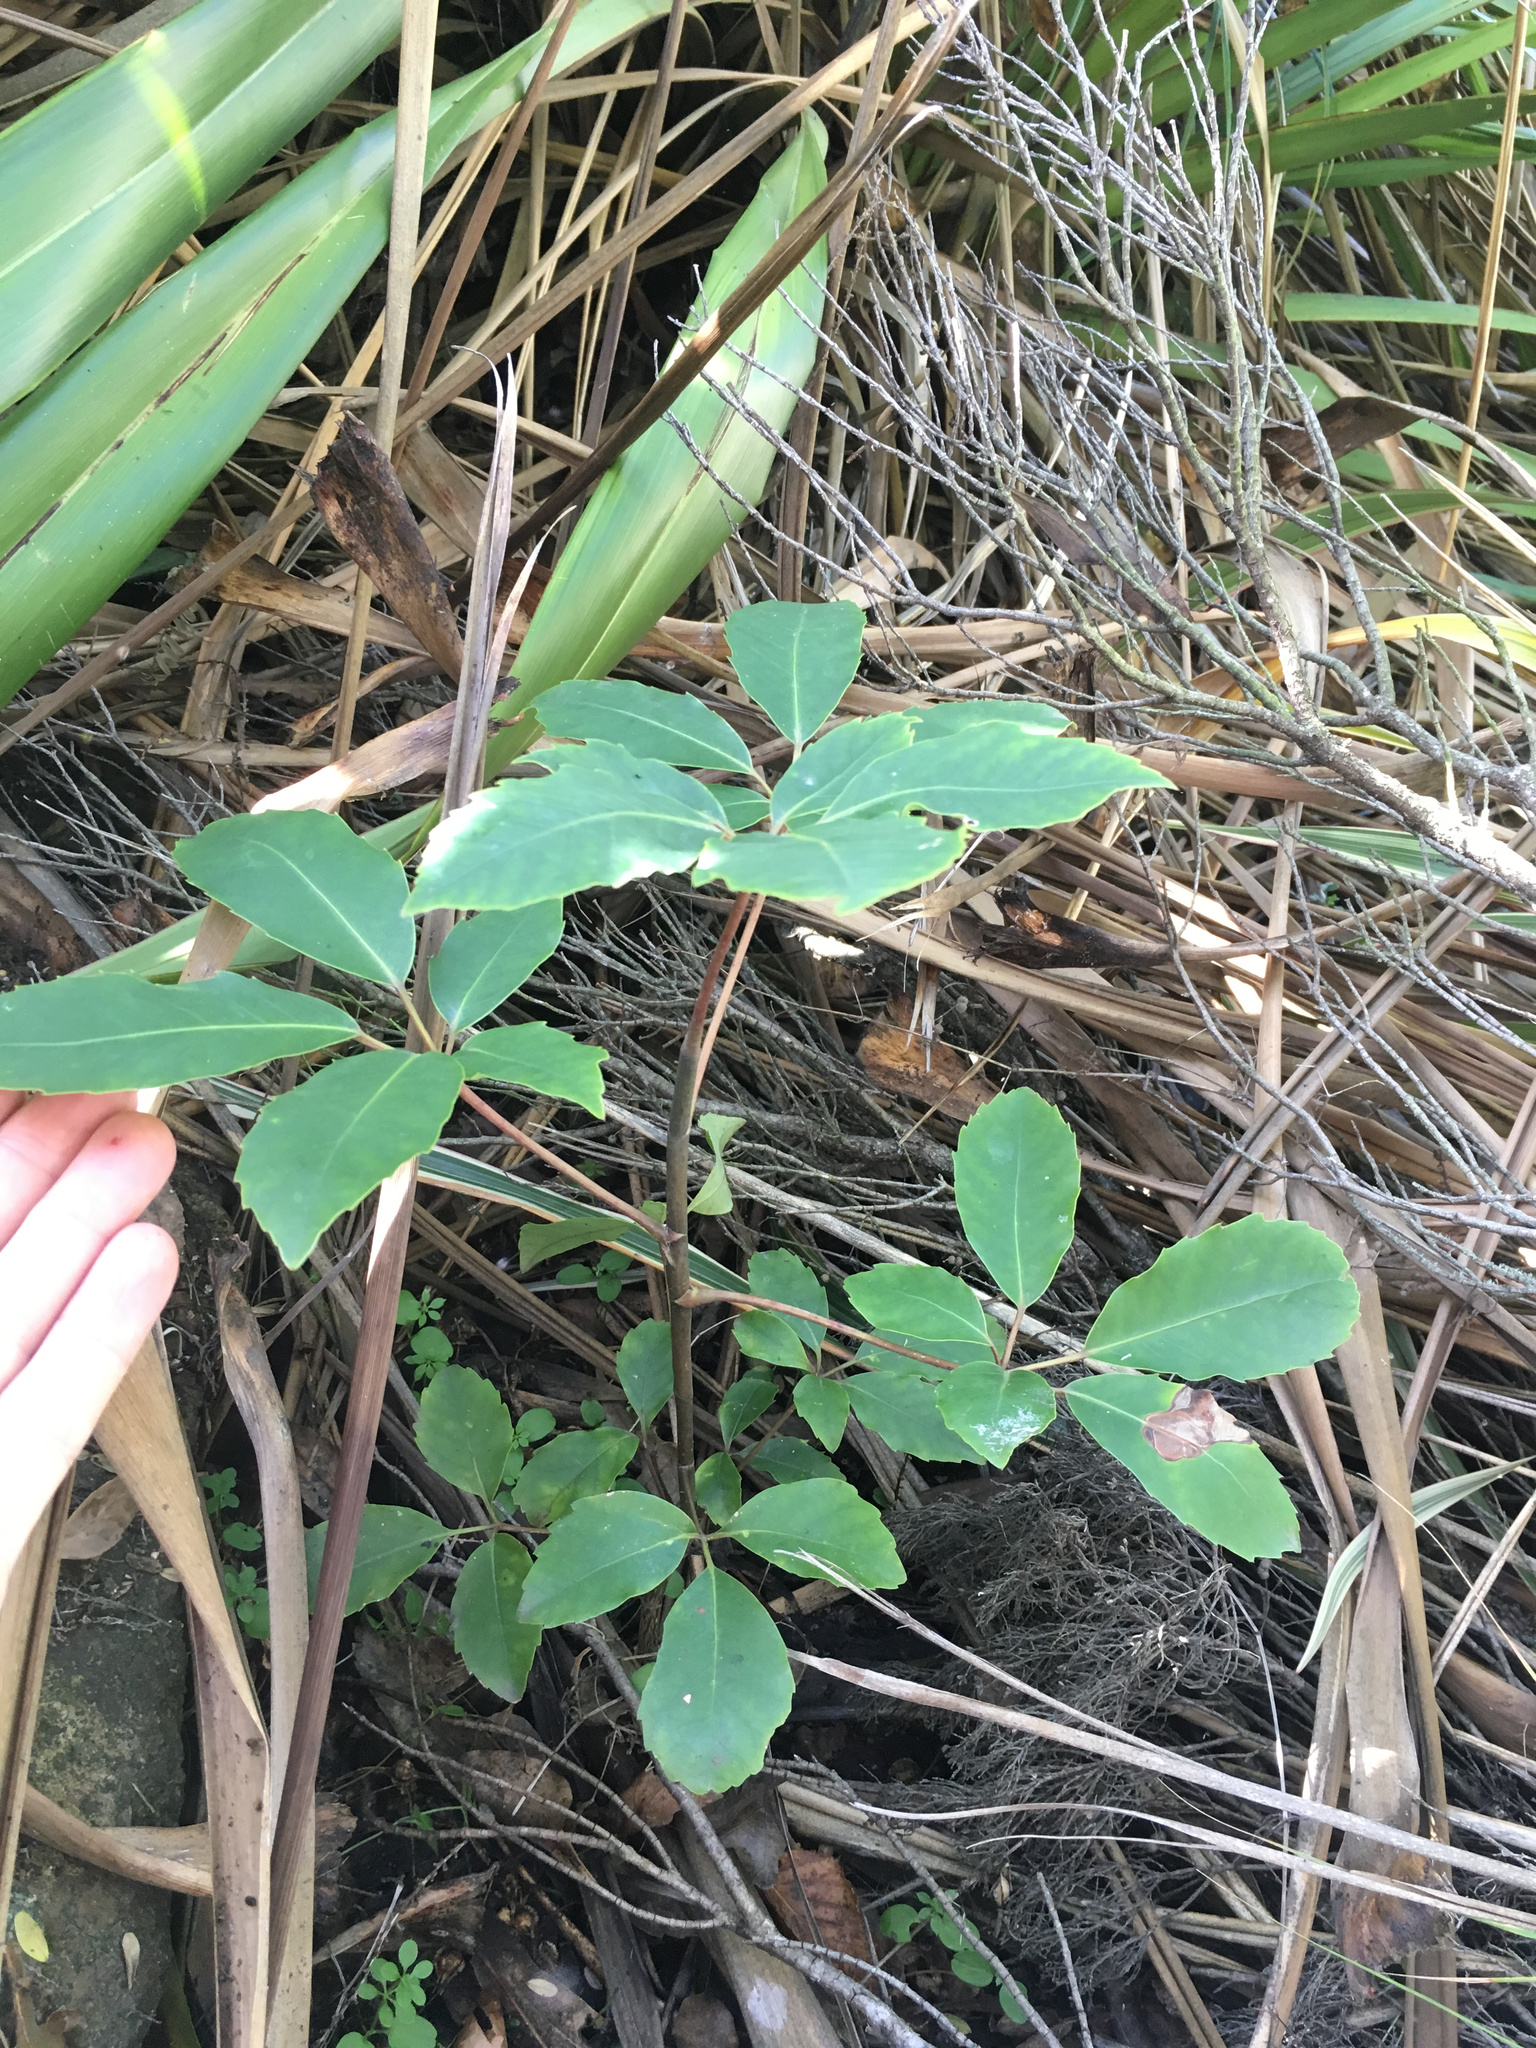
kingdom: Plantae
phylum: Tracheophyta
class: Magnoliopsida
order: Apiales
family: Araliaceae
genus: Neopanax
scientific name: Neopanax arboreus
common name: Five-fingers
